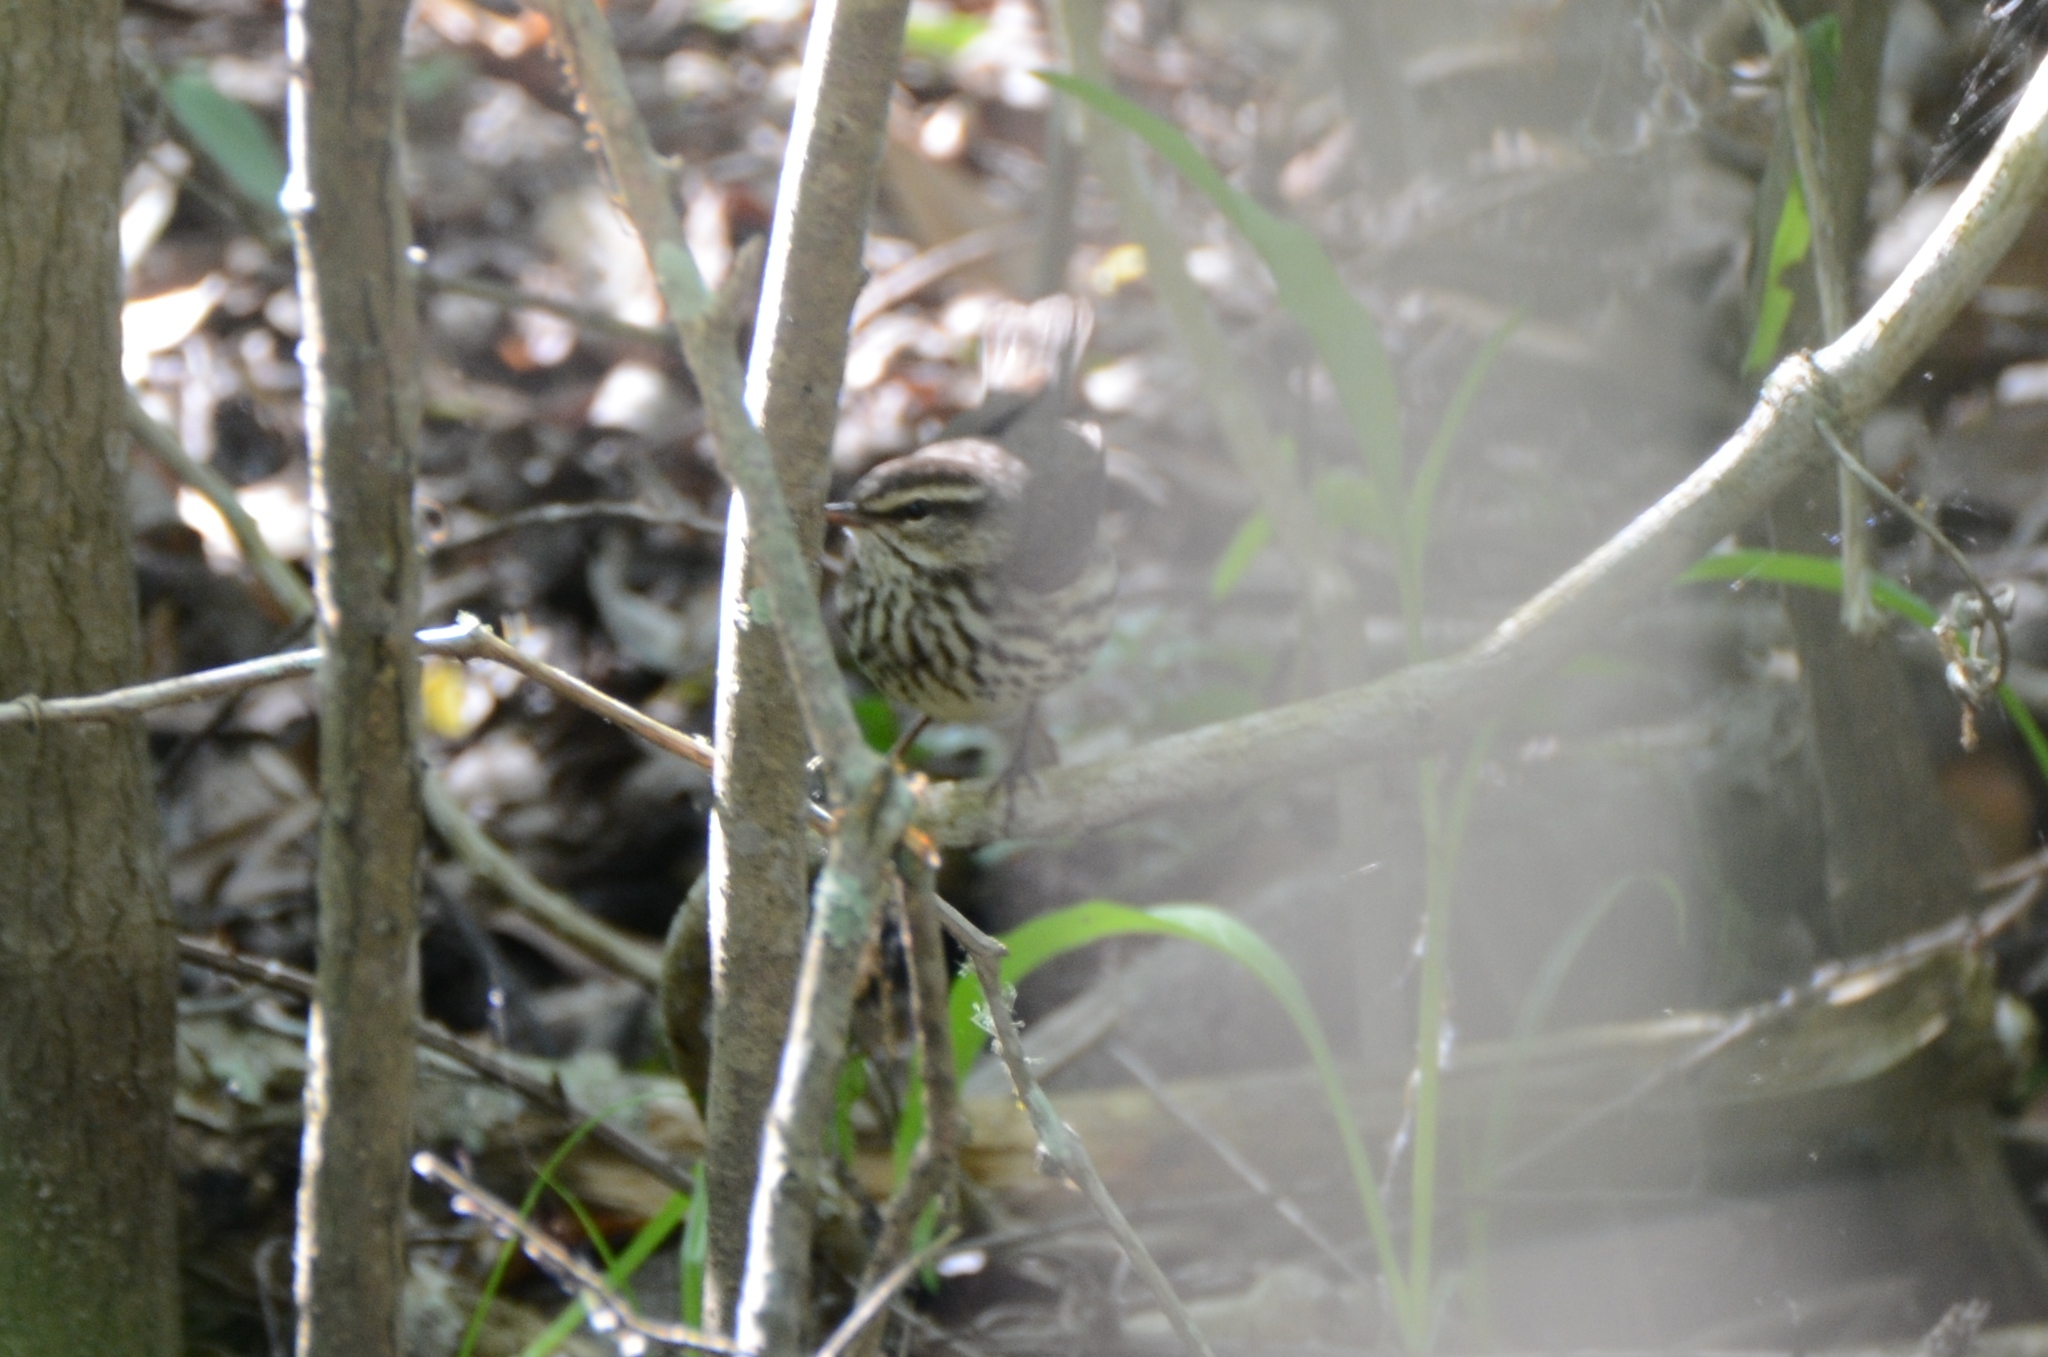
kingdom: Animalia
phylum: Chordata
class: Aves
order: Passeriformes
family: Parulidae
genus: Parkesia
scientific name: Parkesia noveboracensis
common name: Northern waterthrush
